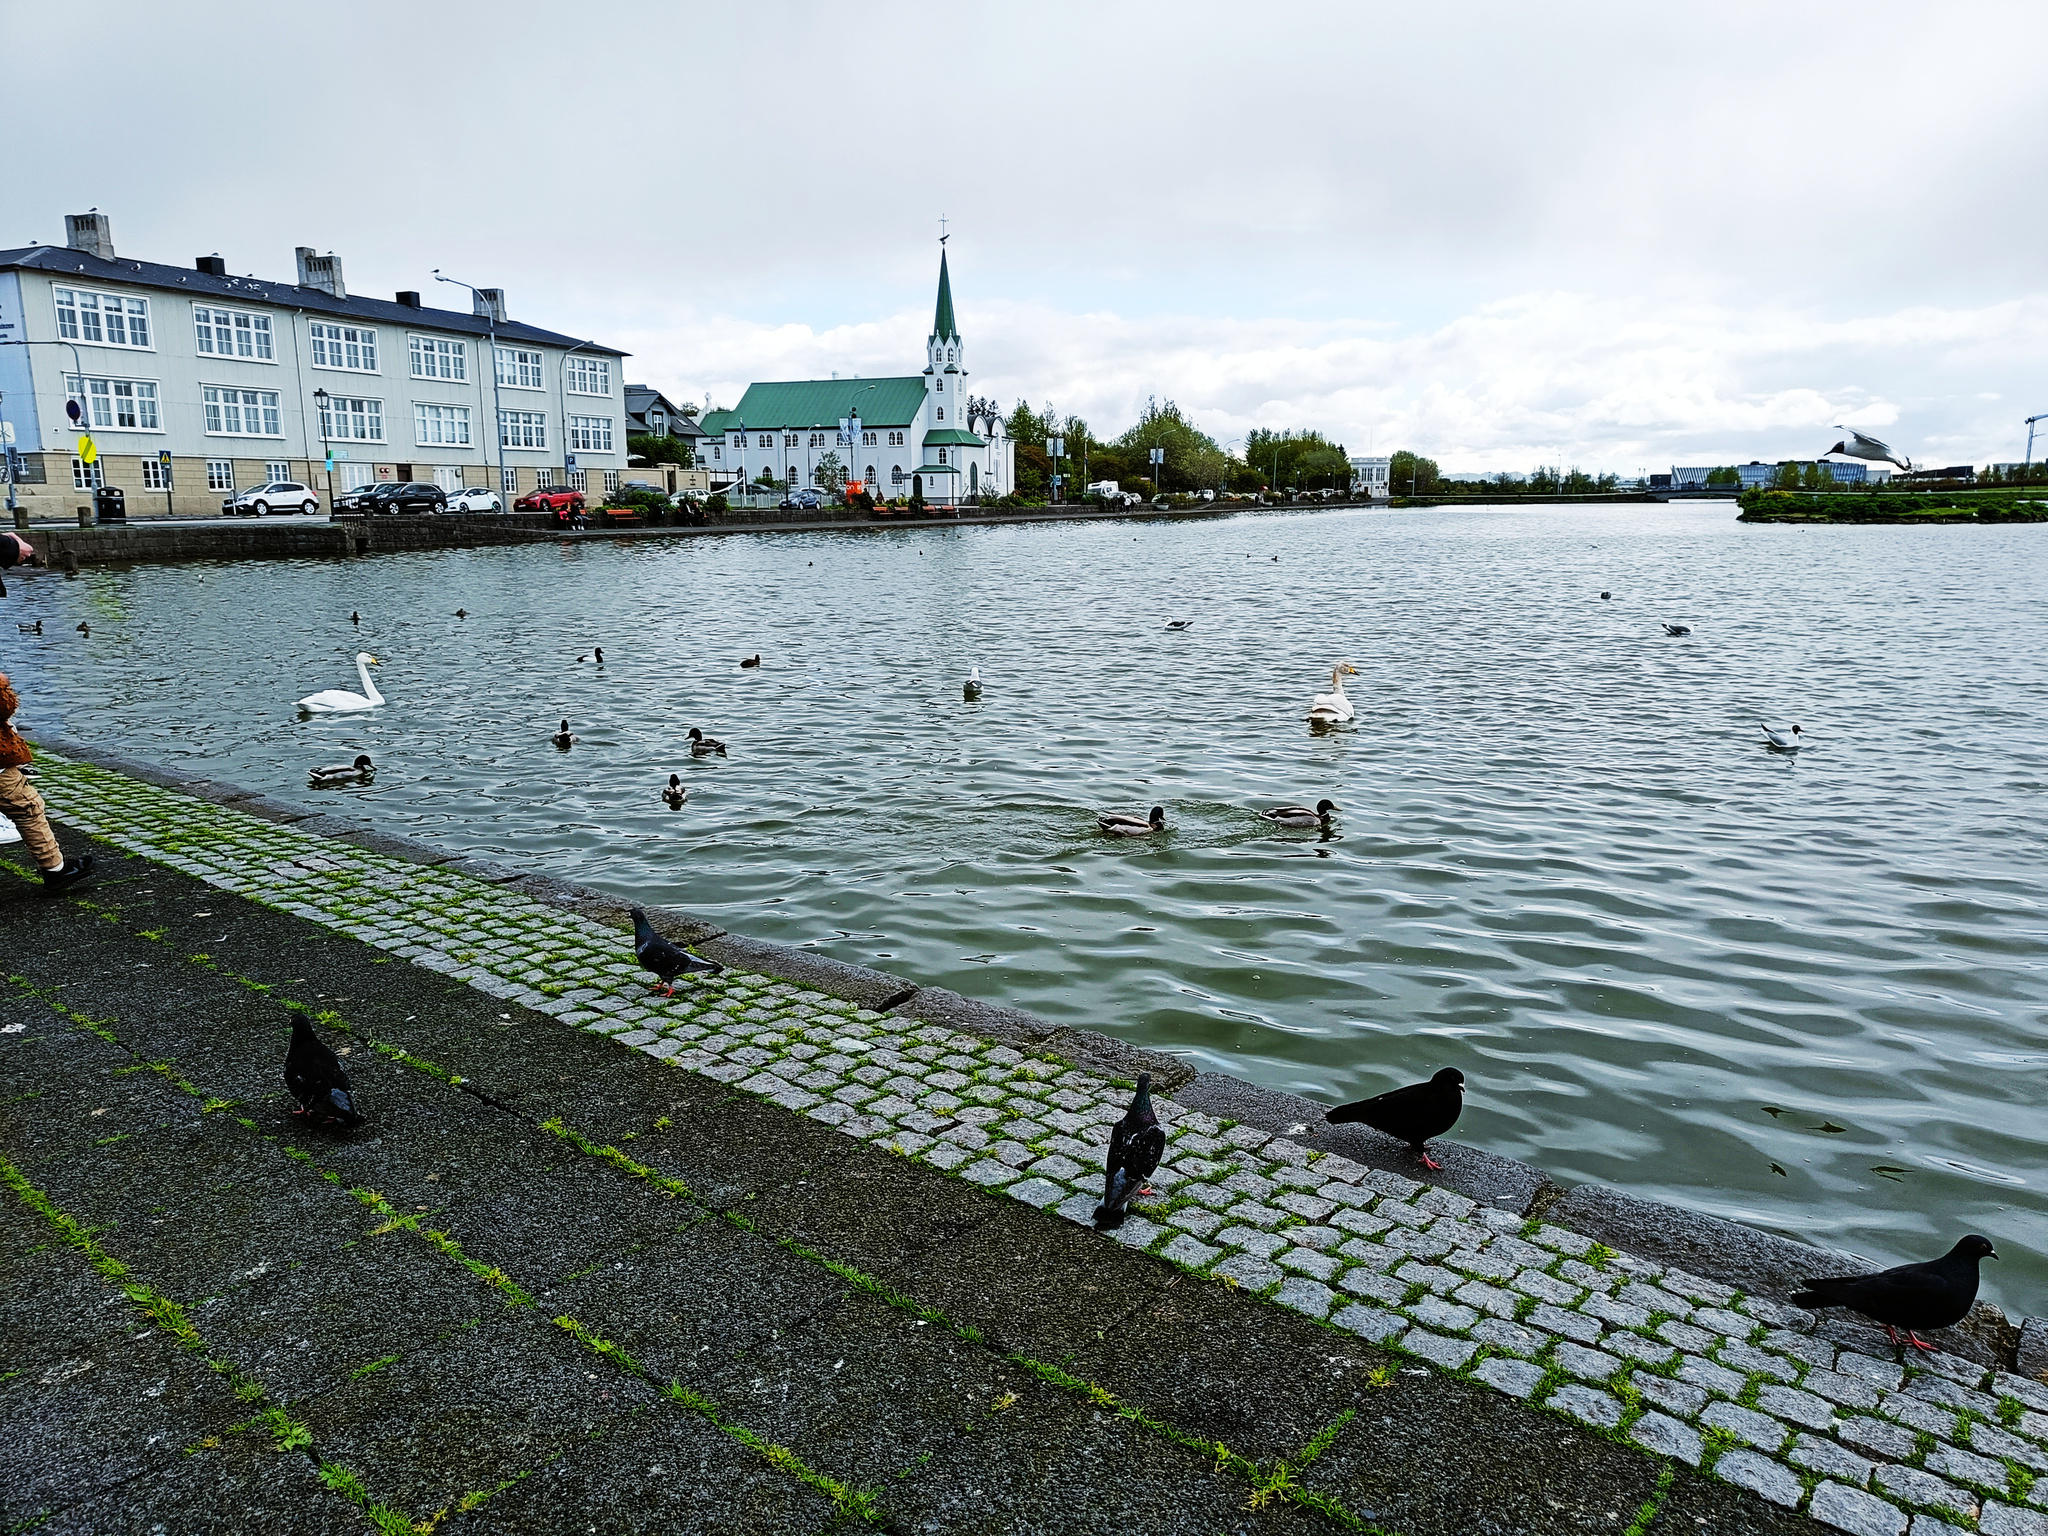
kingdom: Animalia
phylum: Chordata
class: Aves
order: Columbiformes
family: Columbidae
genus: Columba
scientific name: Columba livia
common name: Rock pigeon
